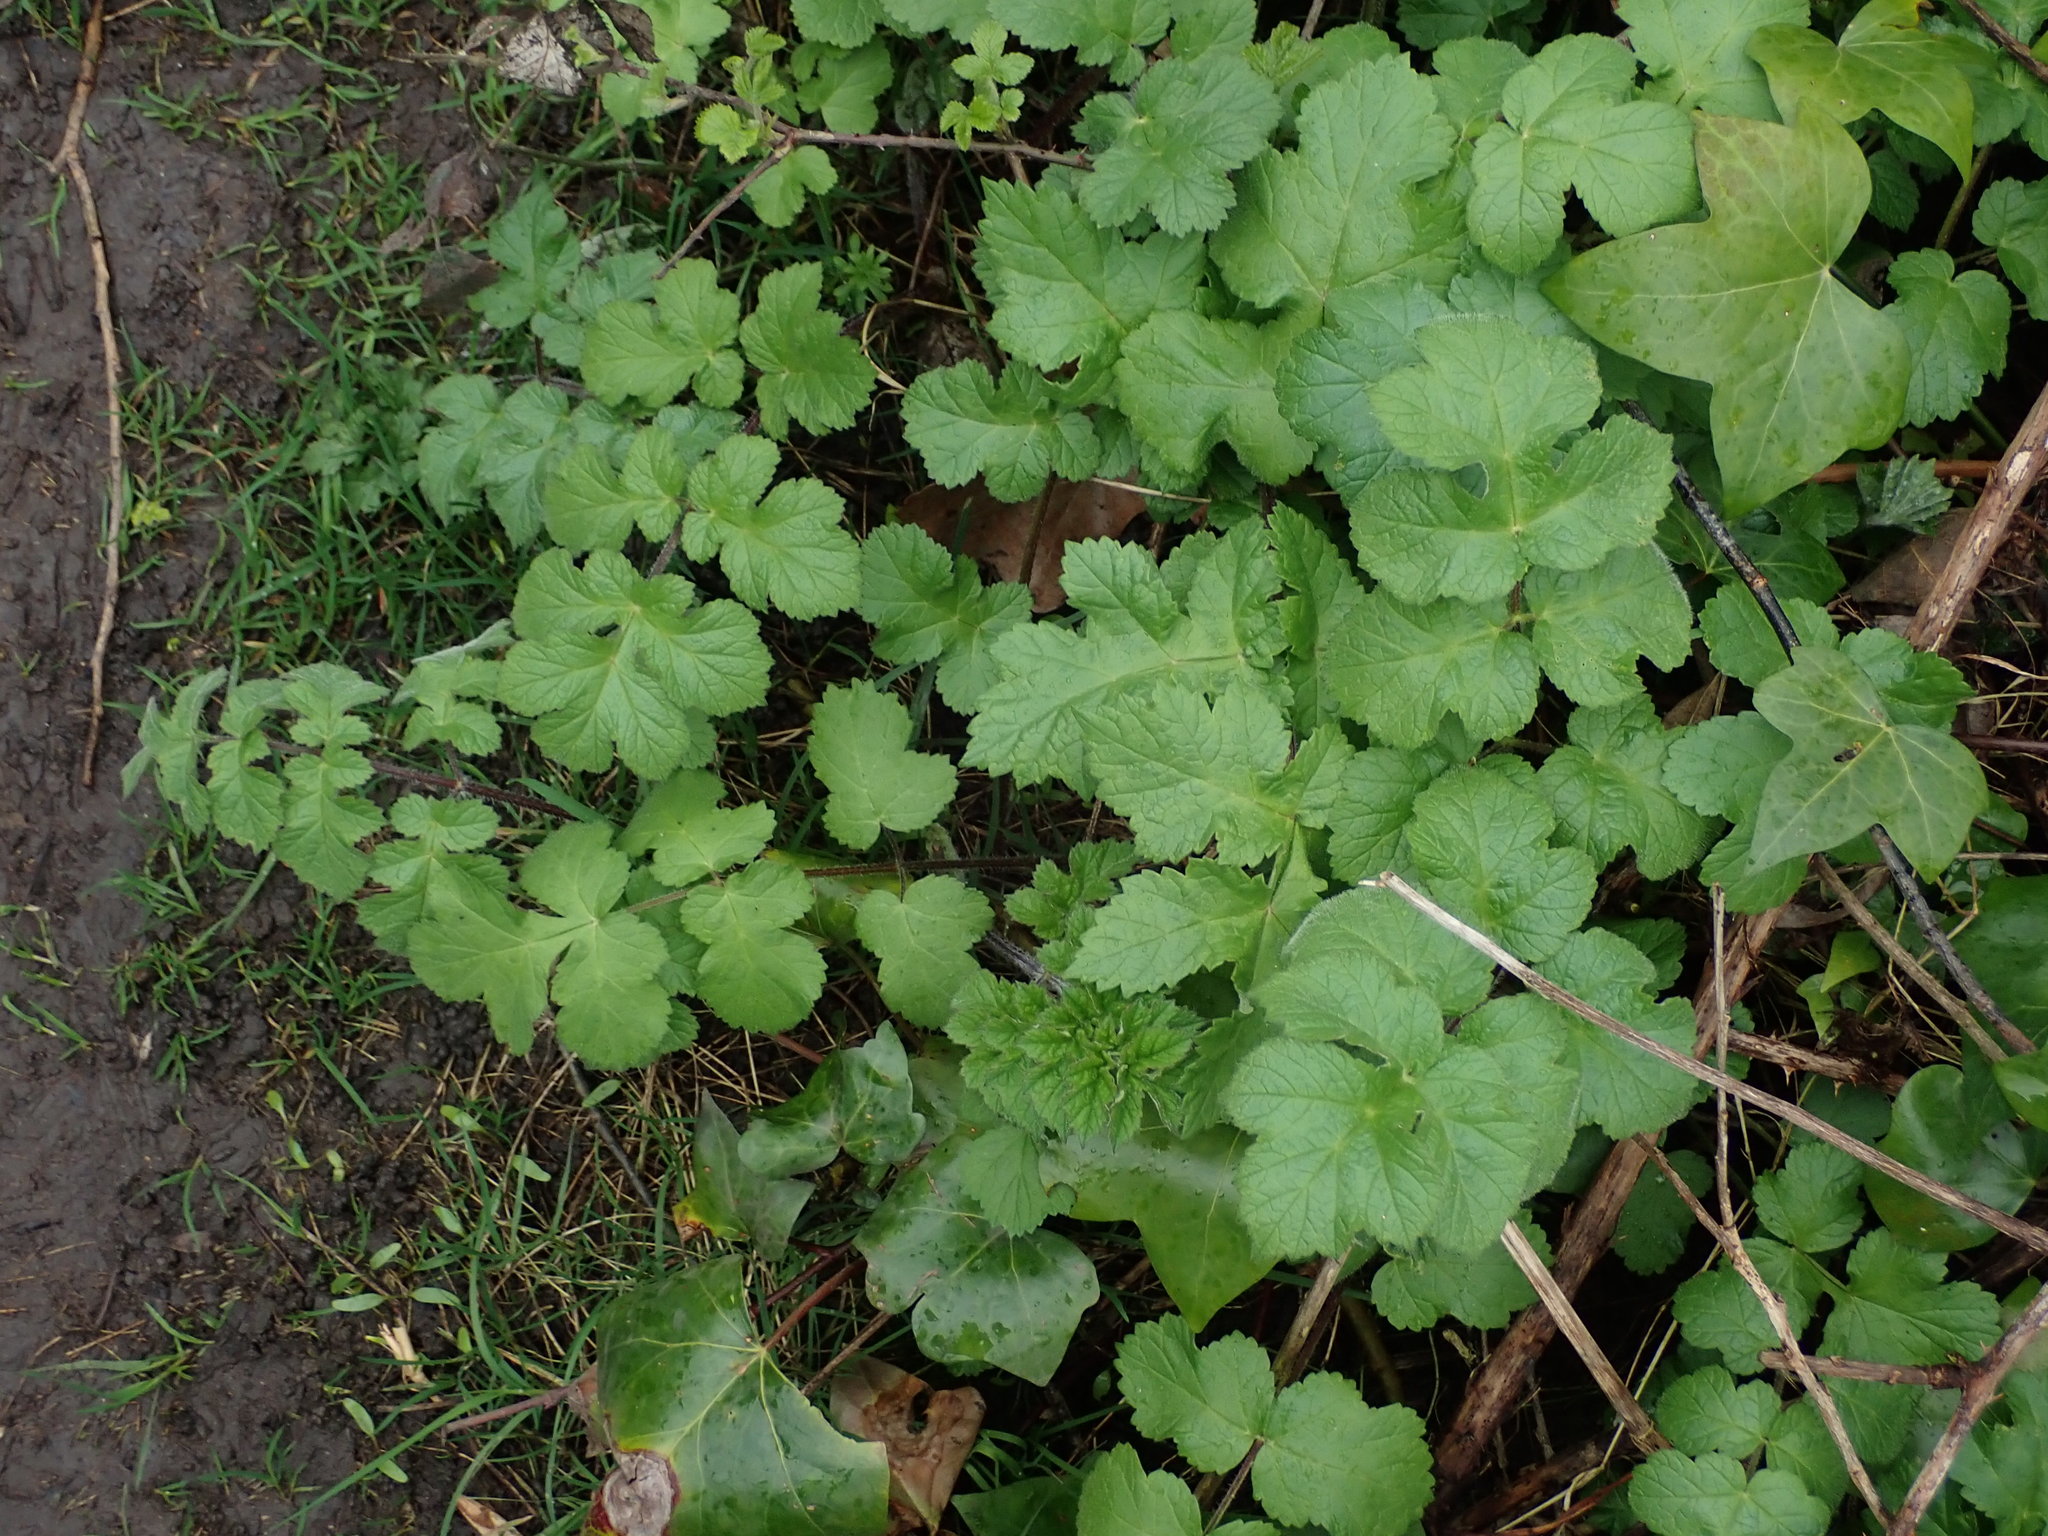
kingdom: Plantae
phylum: Tracheophyta
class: Magnoliopsida
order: Apiales
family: Apiaceae
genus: Heracleum
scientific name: Heracleum sphondylium
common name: Hogweed
